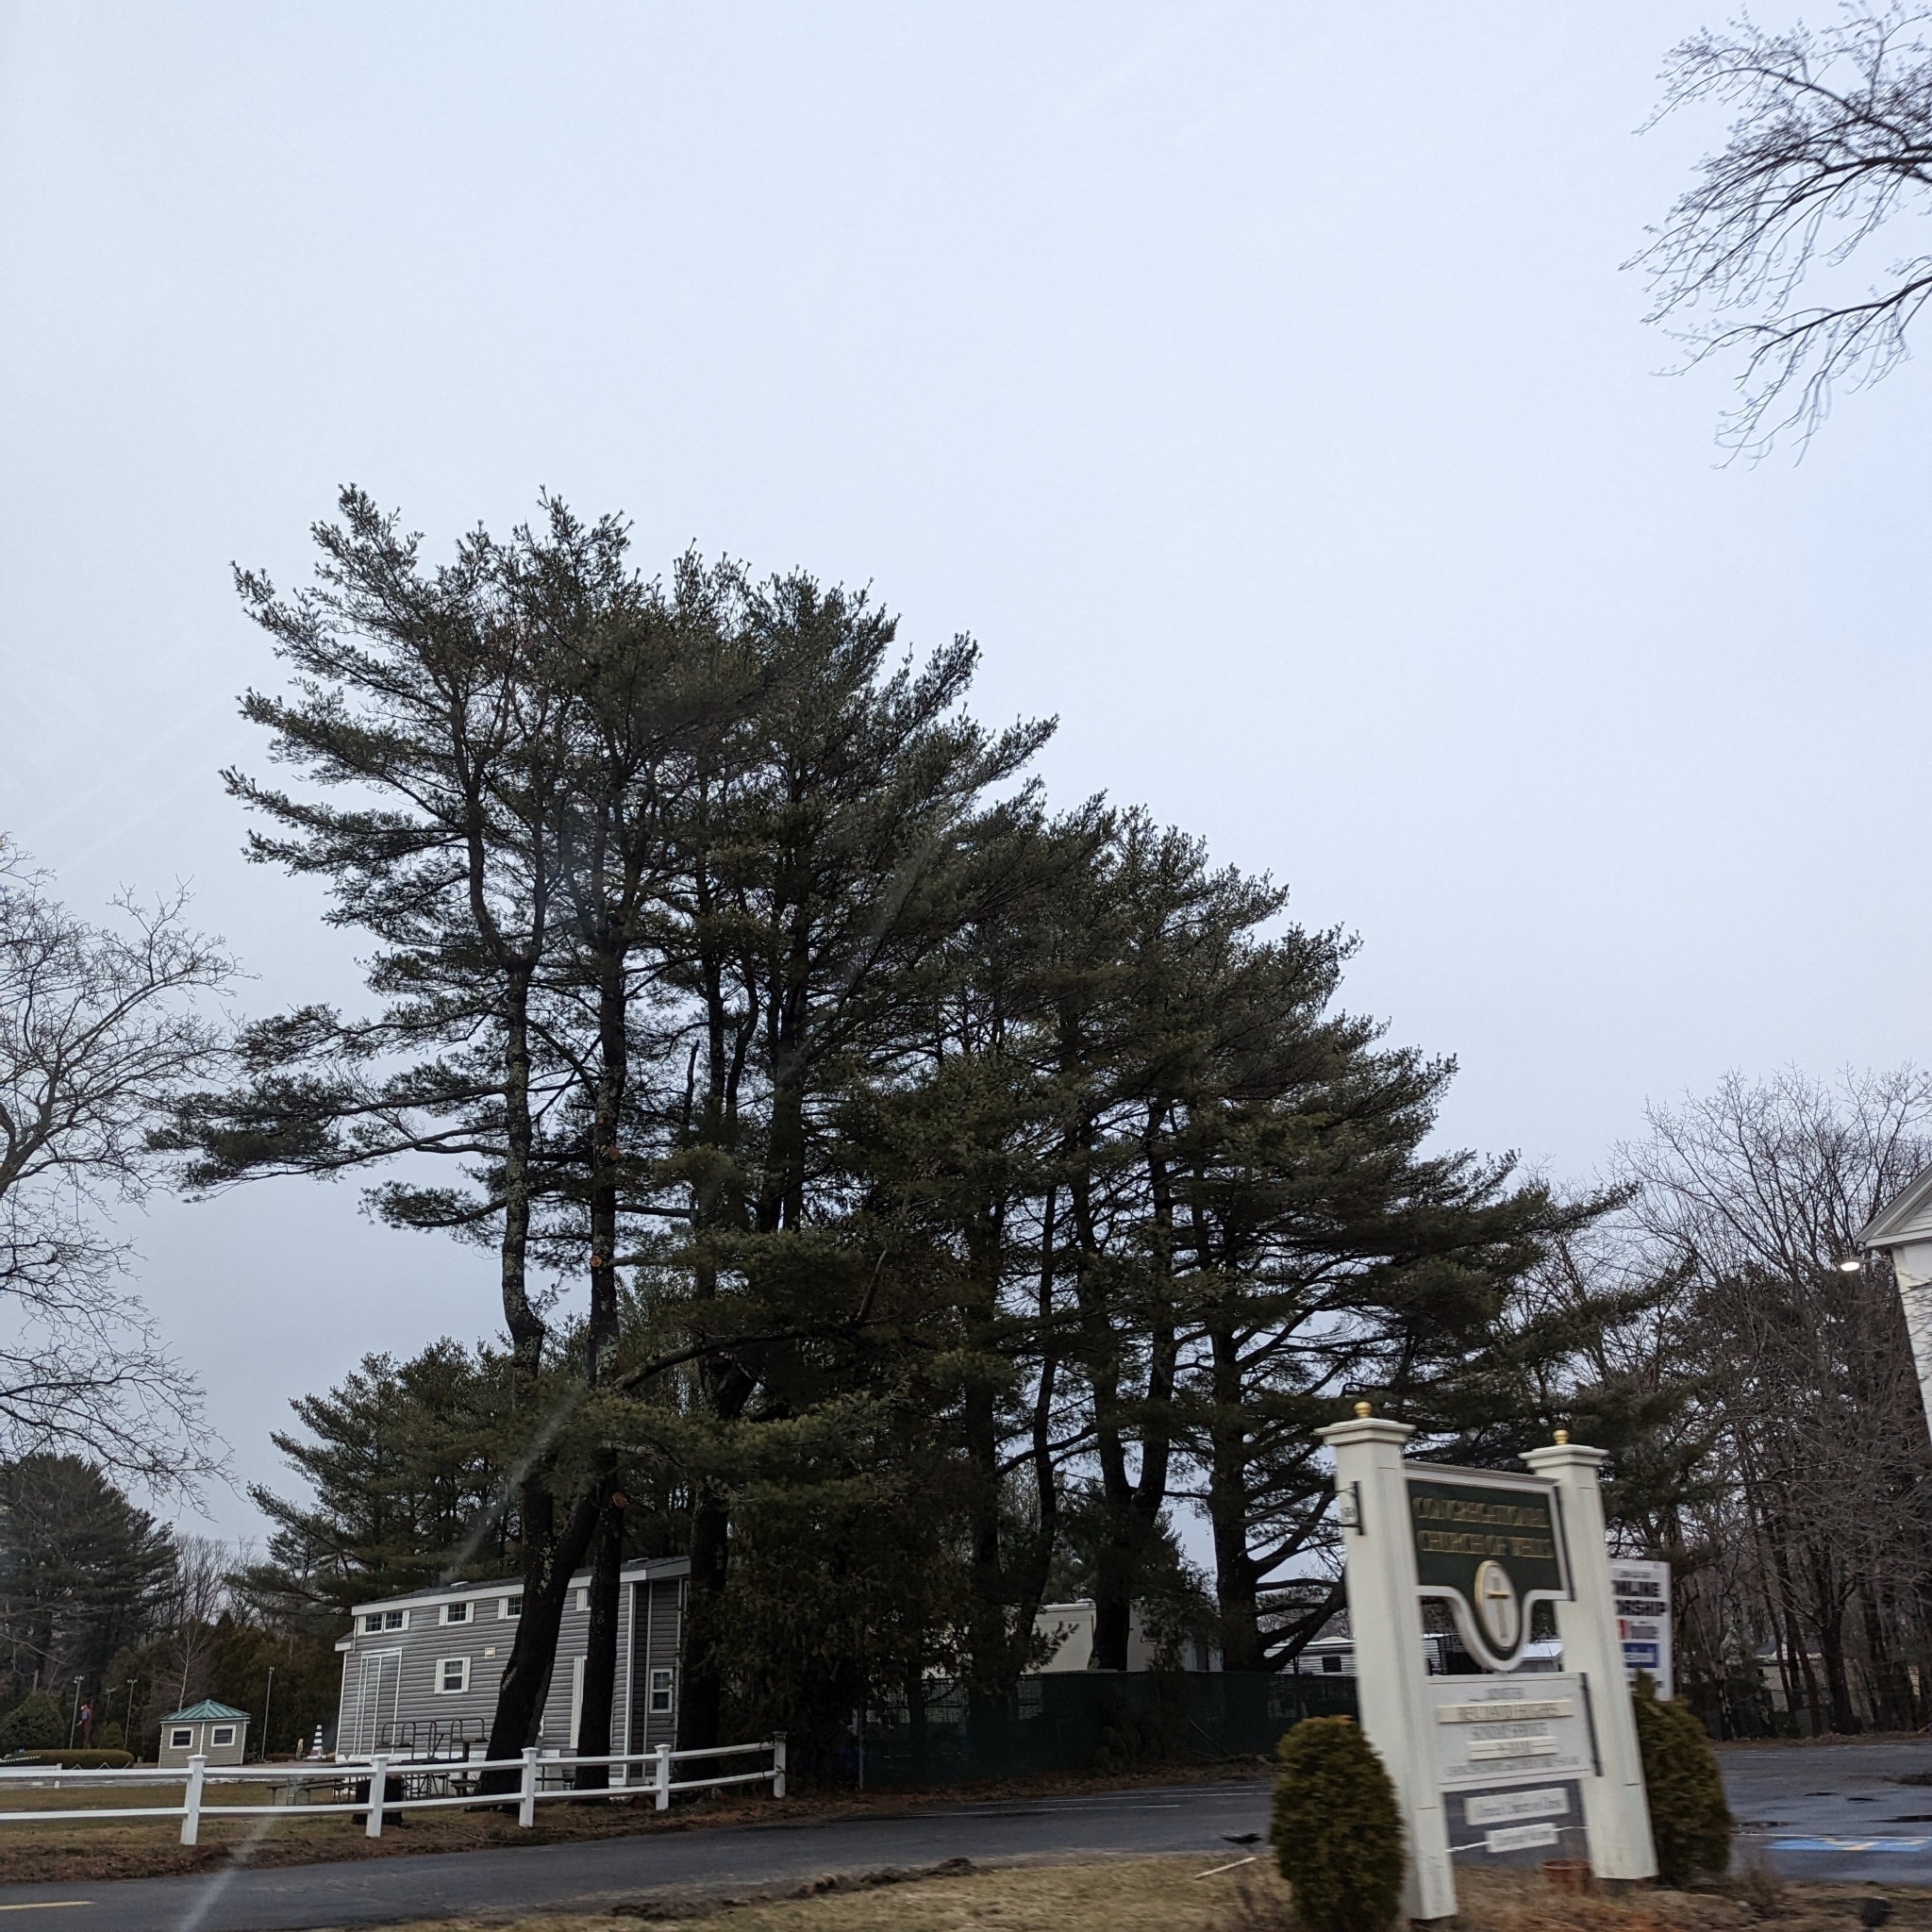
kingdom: Plantae
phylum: Tracheophyta
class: Pinopsida
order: Pinales
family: Pinaceae
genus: Pinus
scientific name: Pinus strobus
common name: Weymouth pine
